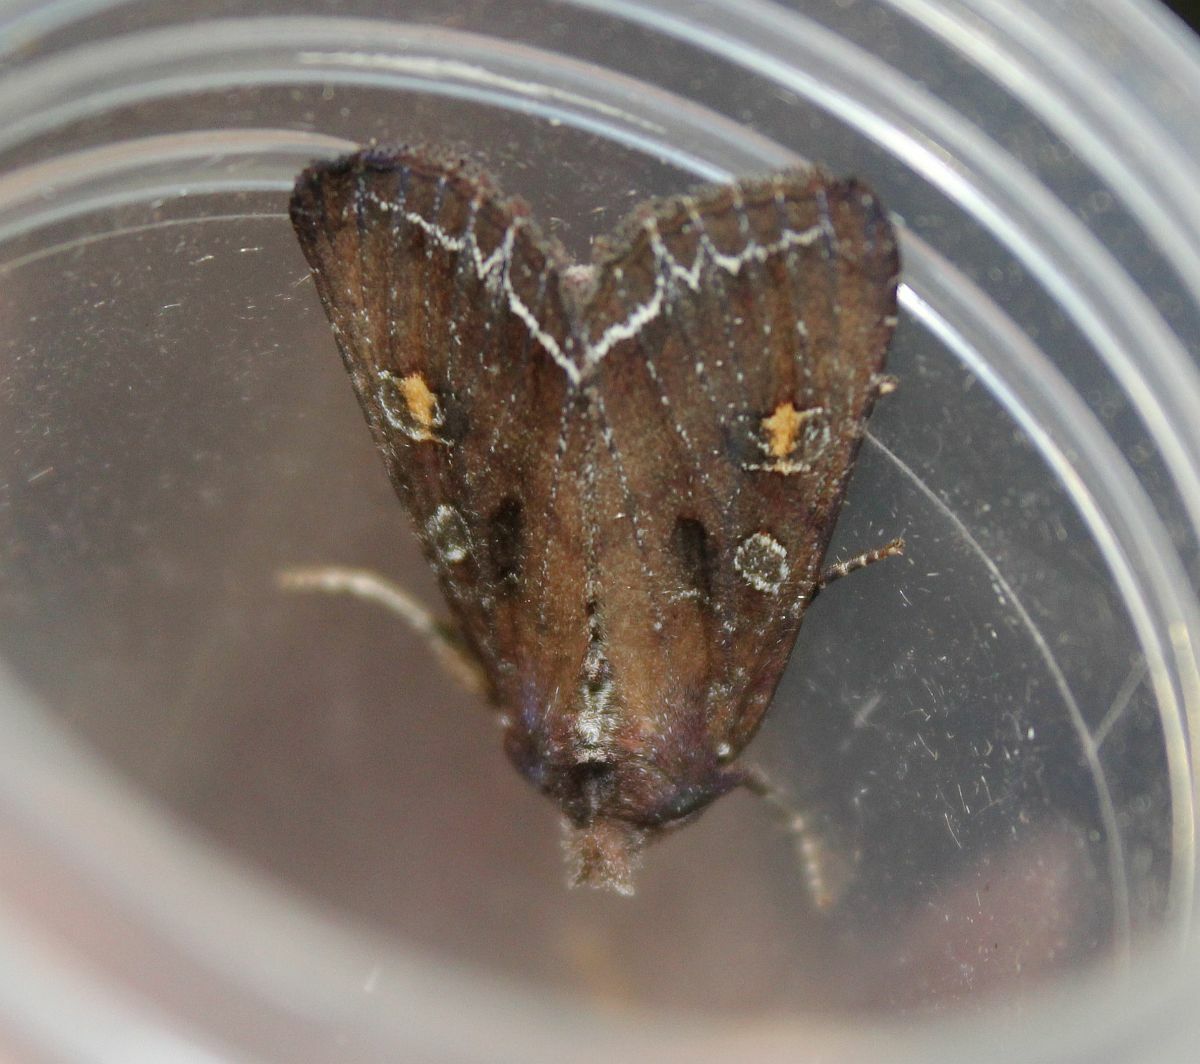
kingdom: Animalia
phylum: Arthropoda
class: Insecta
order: Lepidoptera
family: Noctuidae
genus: Lacanobia
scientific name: Lacanobia oleracea
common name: Bright-line brown-eye
